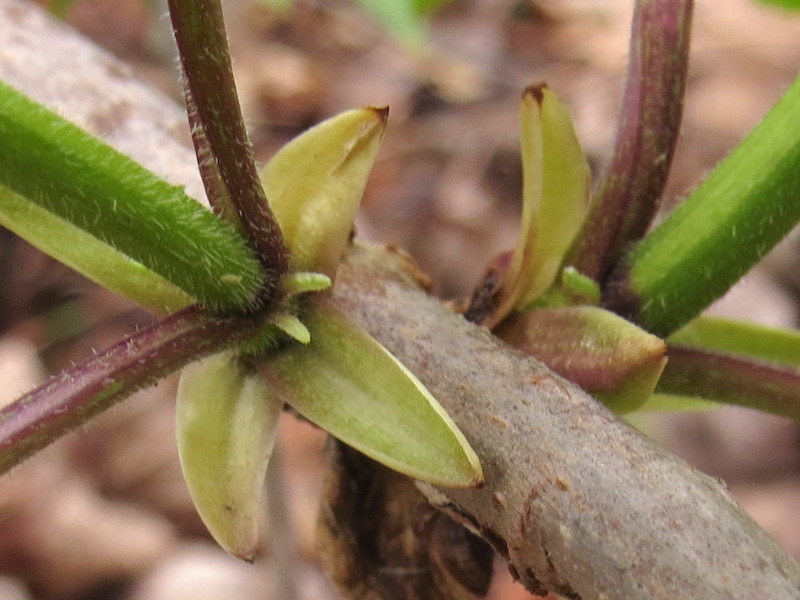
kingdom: Plantae
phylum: Tracheophyta
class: Magnoliopsida
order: Dipsacales
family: Viburnaceae
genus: Sambucus
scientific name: Sambucus racemosa
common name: Red-berried elder
